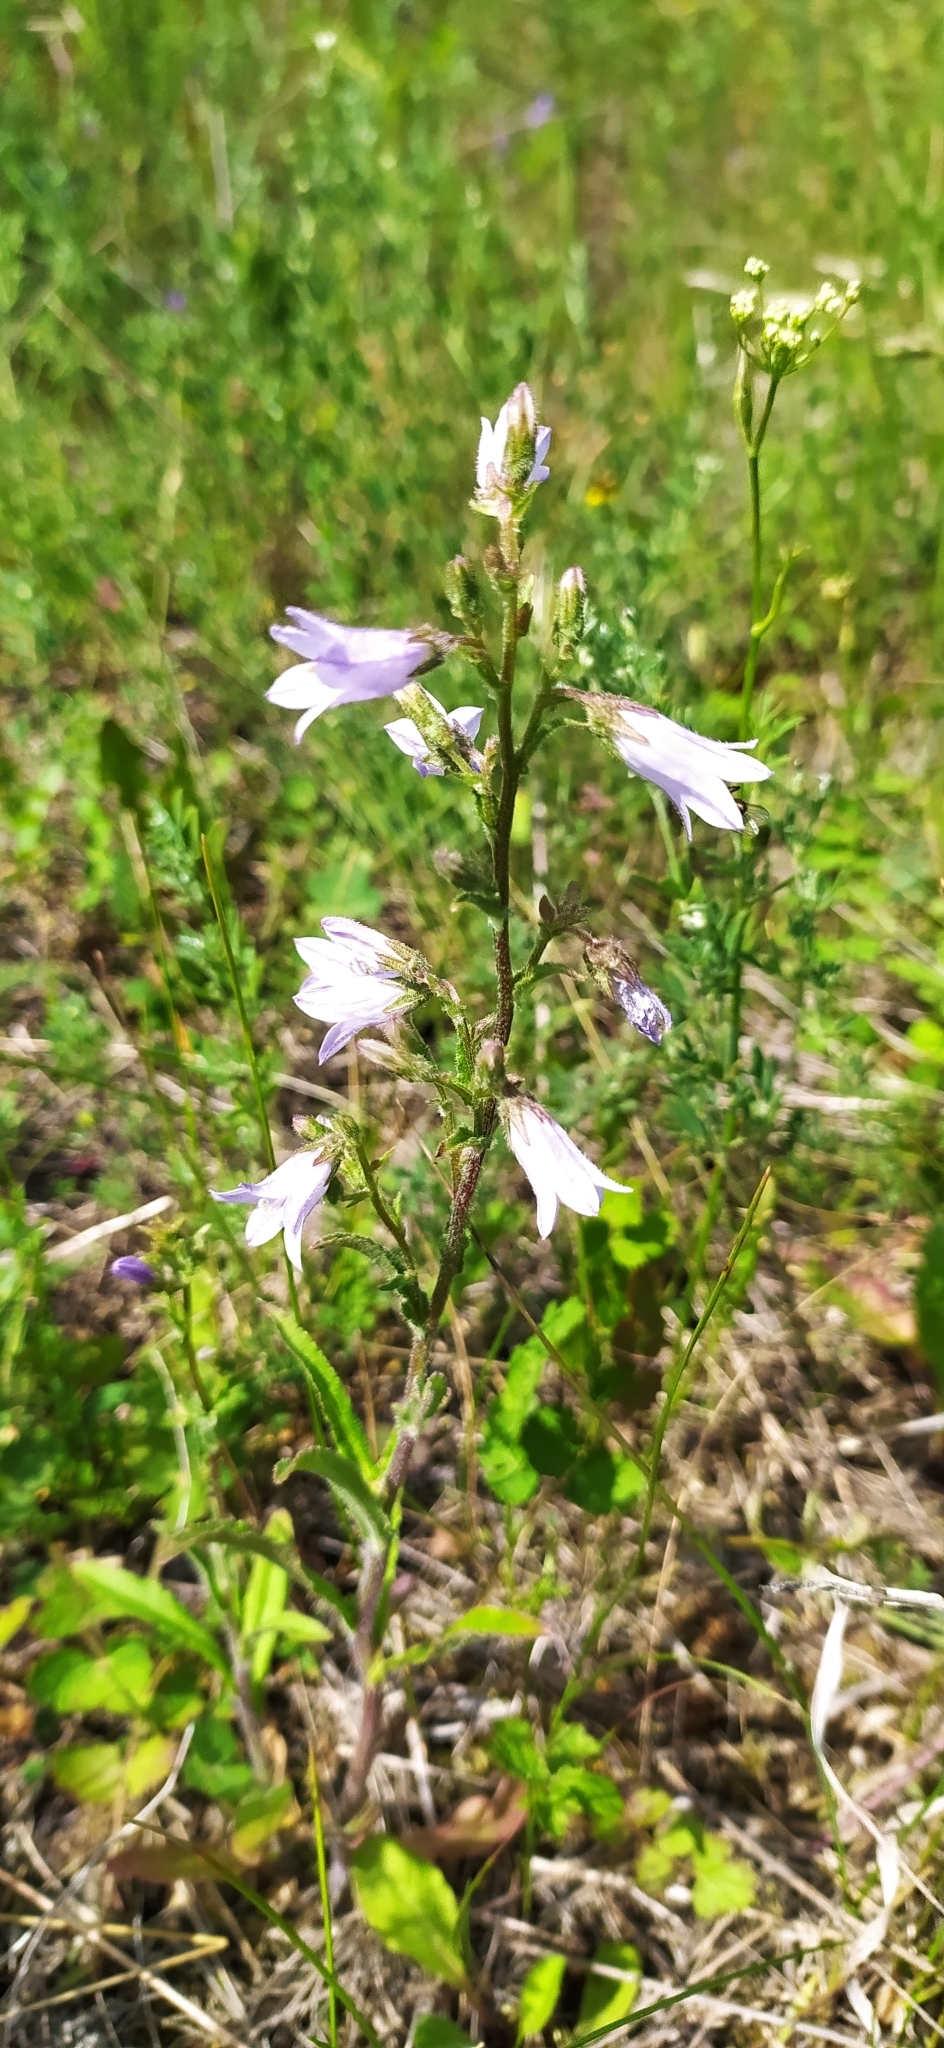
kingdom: Plantae
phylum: Tracheophyta
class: Magnoliopsida
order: Asterales
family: Campanulaceae
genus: Campanula
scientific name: Campanula sibirica
